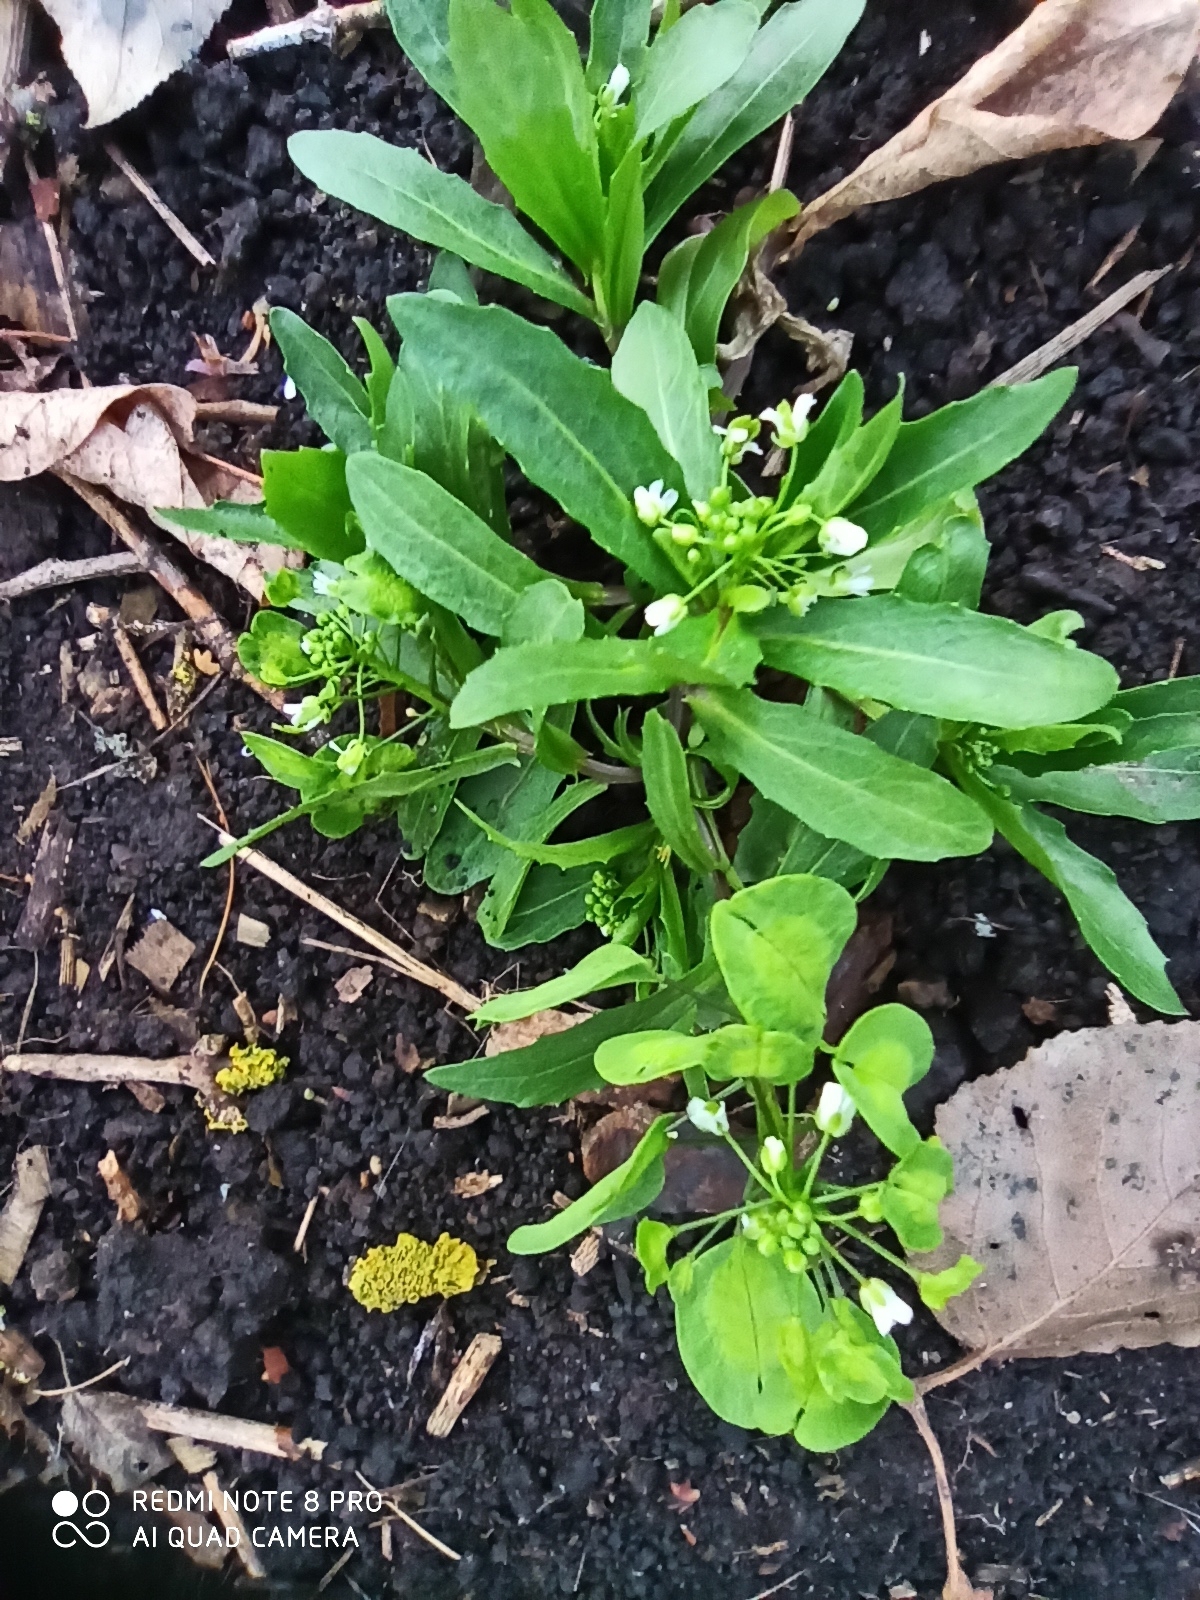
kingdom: Plantae
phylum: Tracheophyta
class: Magnoliopsida
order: Brassicales
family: Brassicaceae
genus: Thlaspi
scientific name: Thlaspi arvense
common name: Field pennycress
